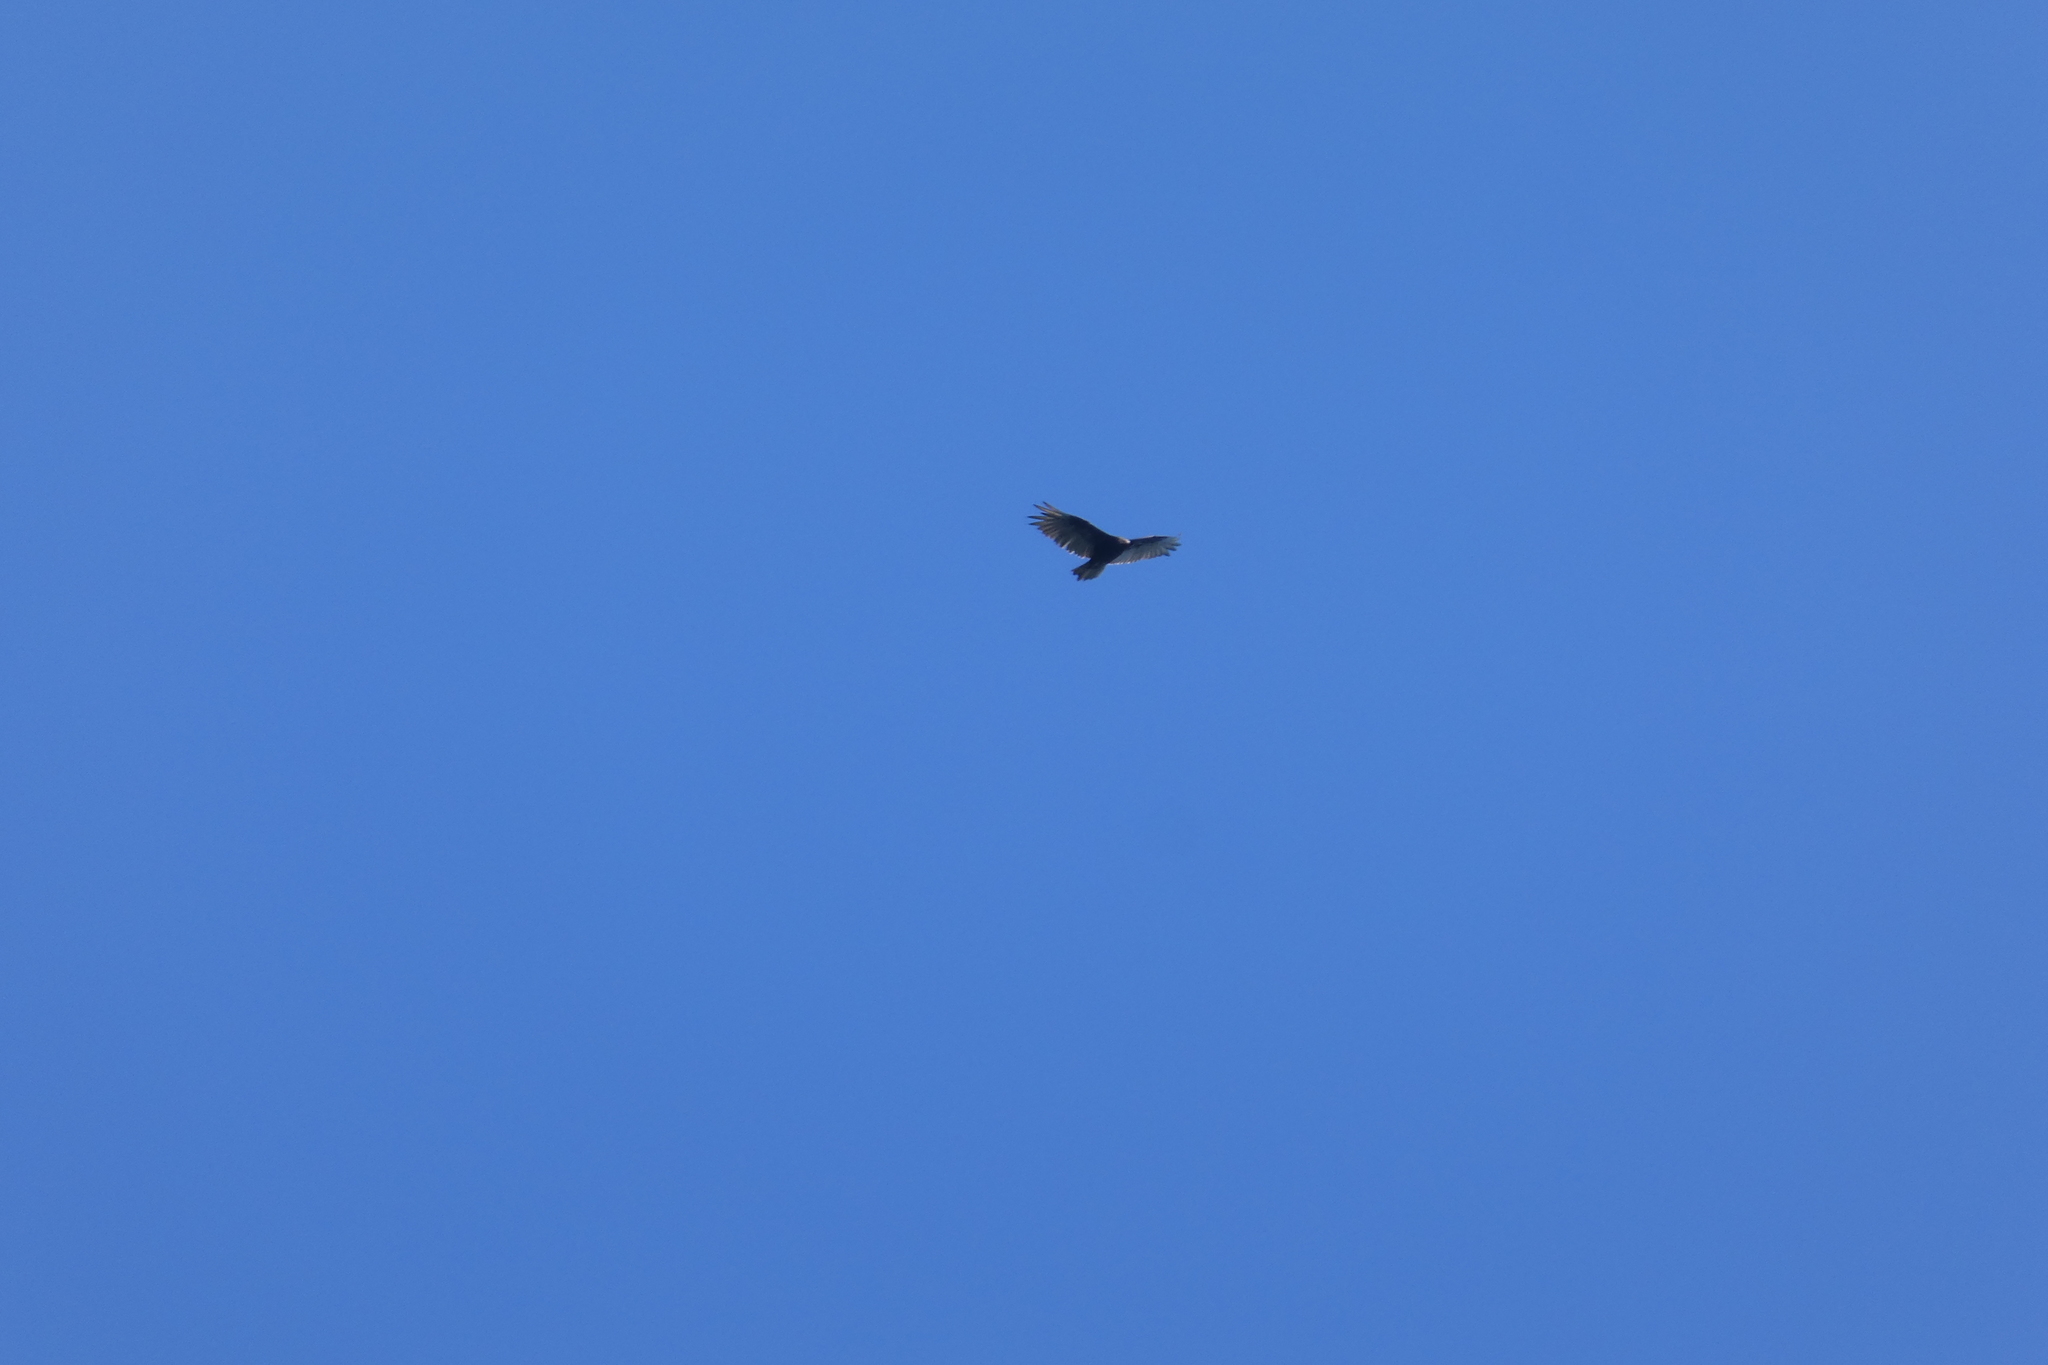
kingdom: Animalia
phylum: Chordata
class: Aves
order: Accipitriformes
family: Cathartidae
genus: Cathartes
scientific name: Cathartes aura
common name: Turkey vulture
